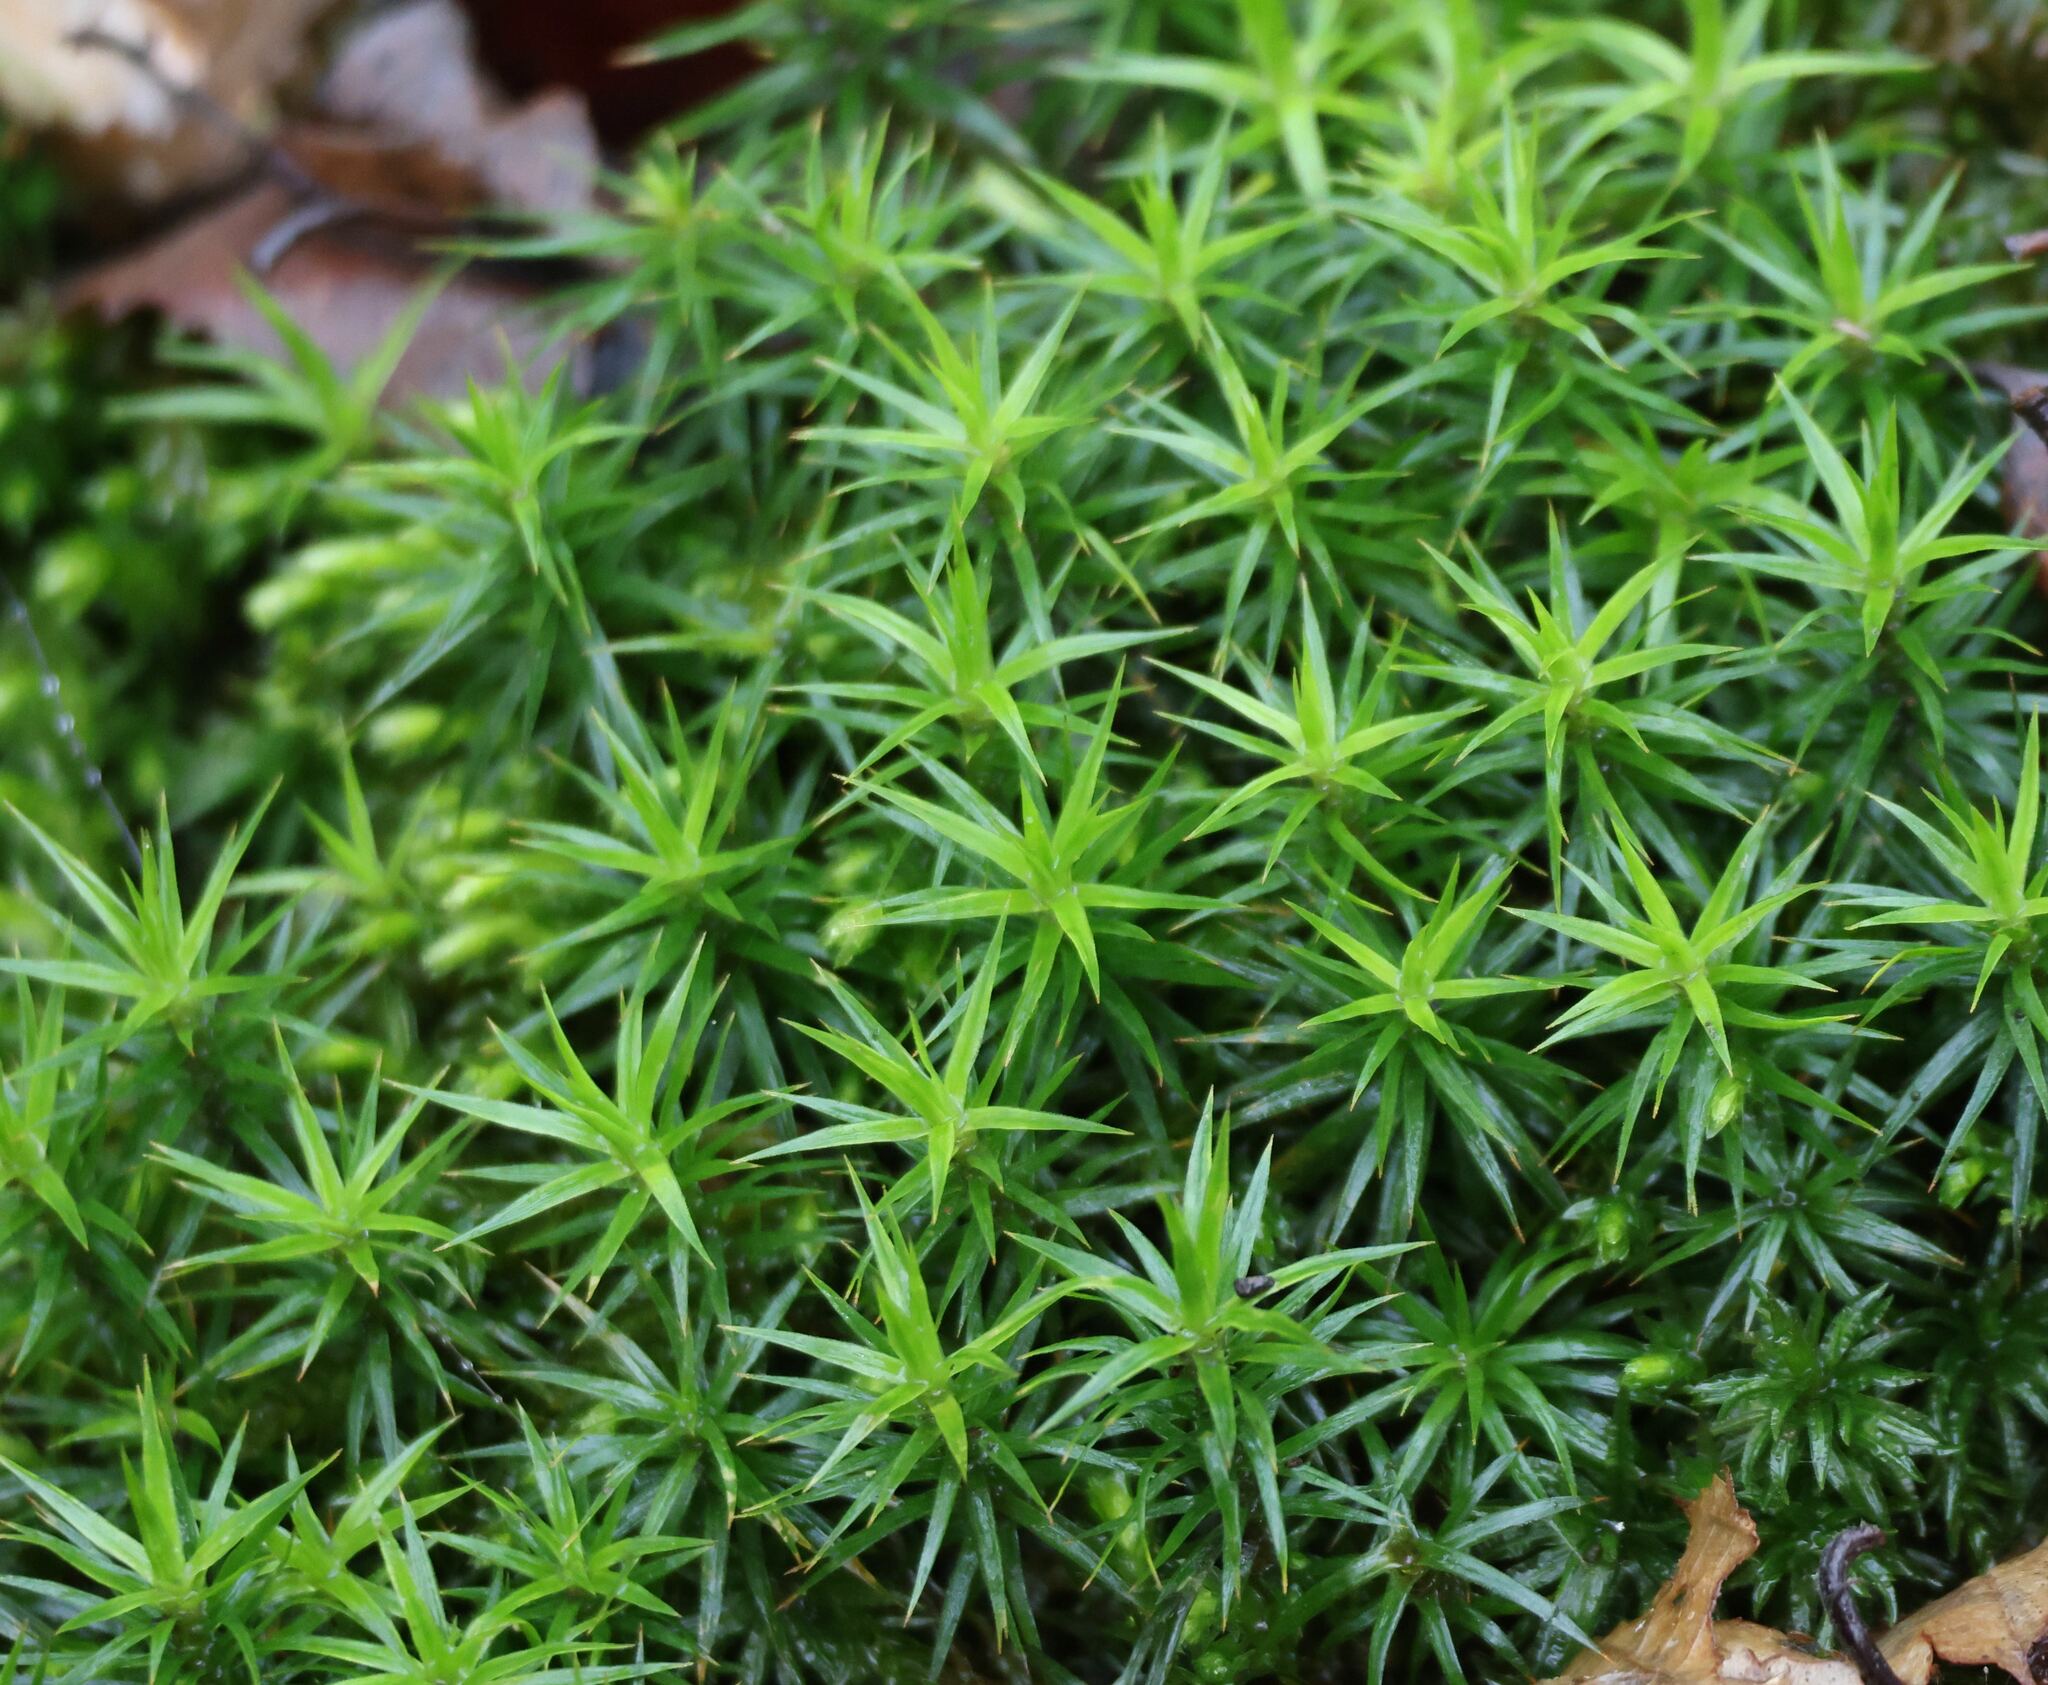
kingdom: Plantae
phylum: Bryophyta
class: Polytrichopsida
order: Polytrichales
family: Polytrichaceae
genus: Polytrichum
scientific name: Polytrichum formosum
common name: Bank haircap moss
